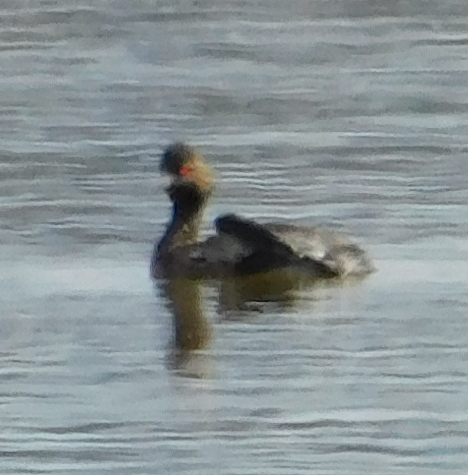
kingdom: Animalia
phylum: Chordata
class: Aves
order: Podicipediformes
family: Podicipedidae
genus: Podiceps
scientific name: Podiceps nigricollis
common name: Black-necked grebe
